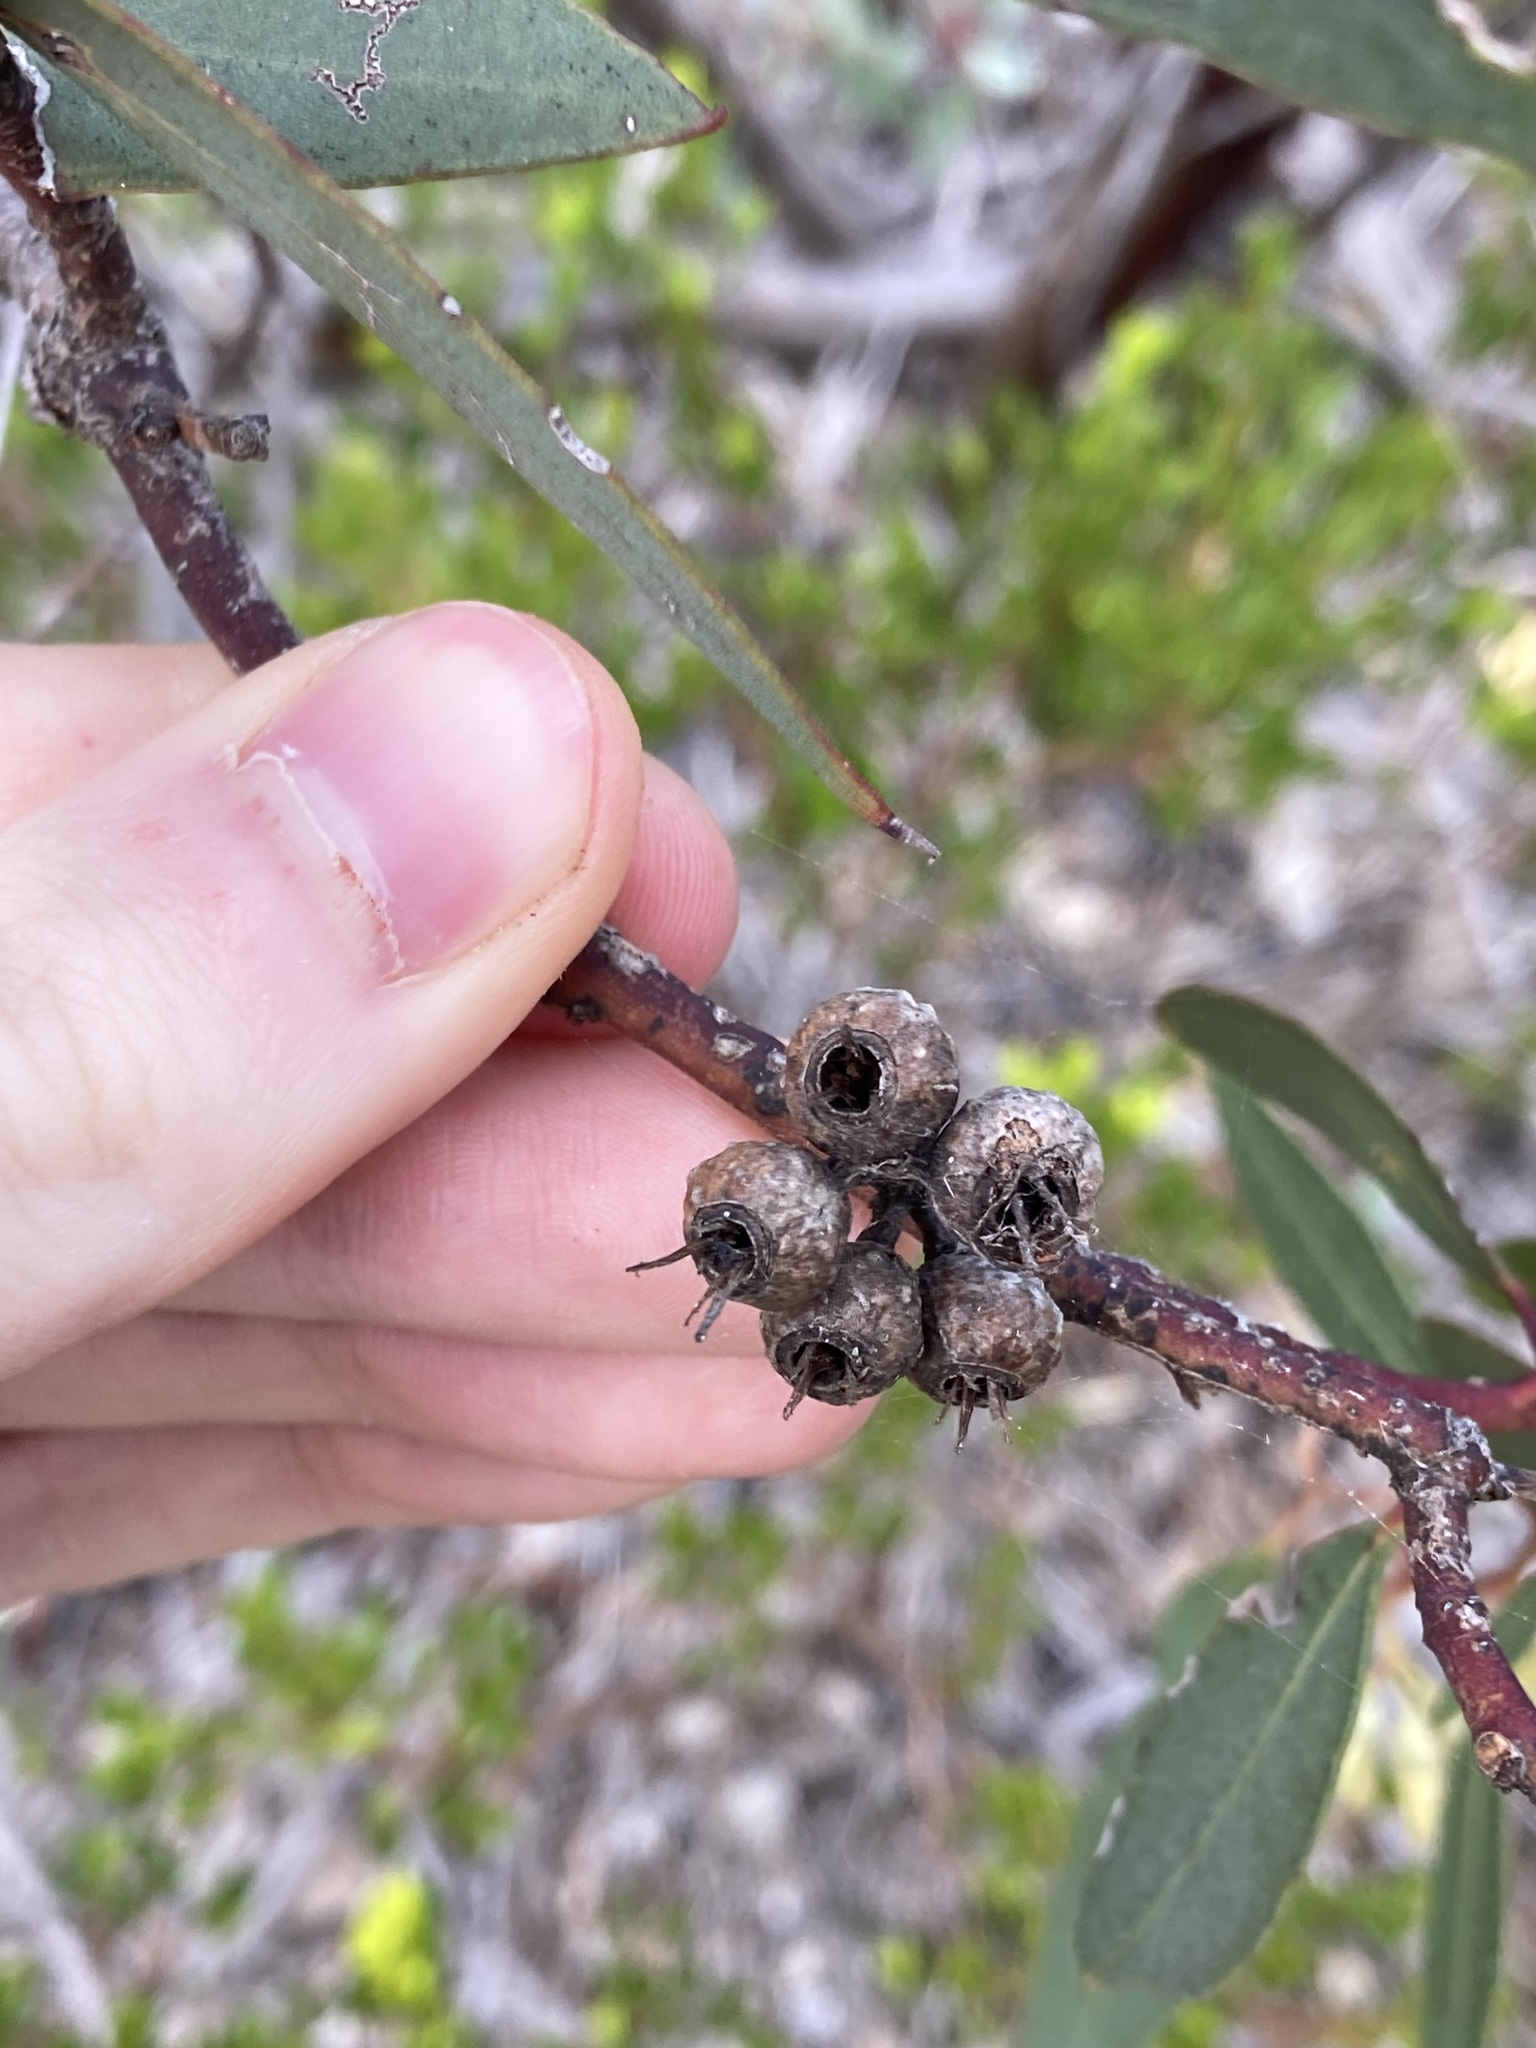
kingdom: Plantae
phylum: Tracheophyta
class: Magnoliopsida
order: Myrtales
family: Myrtaceae
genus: Eucalyptus
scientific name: Eucalyptus ecostata
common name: Coastal silver mallee
